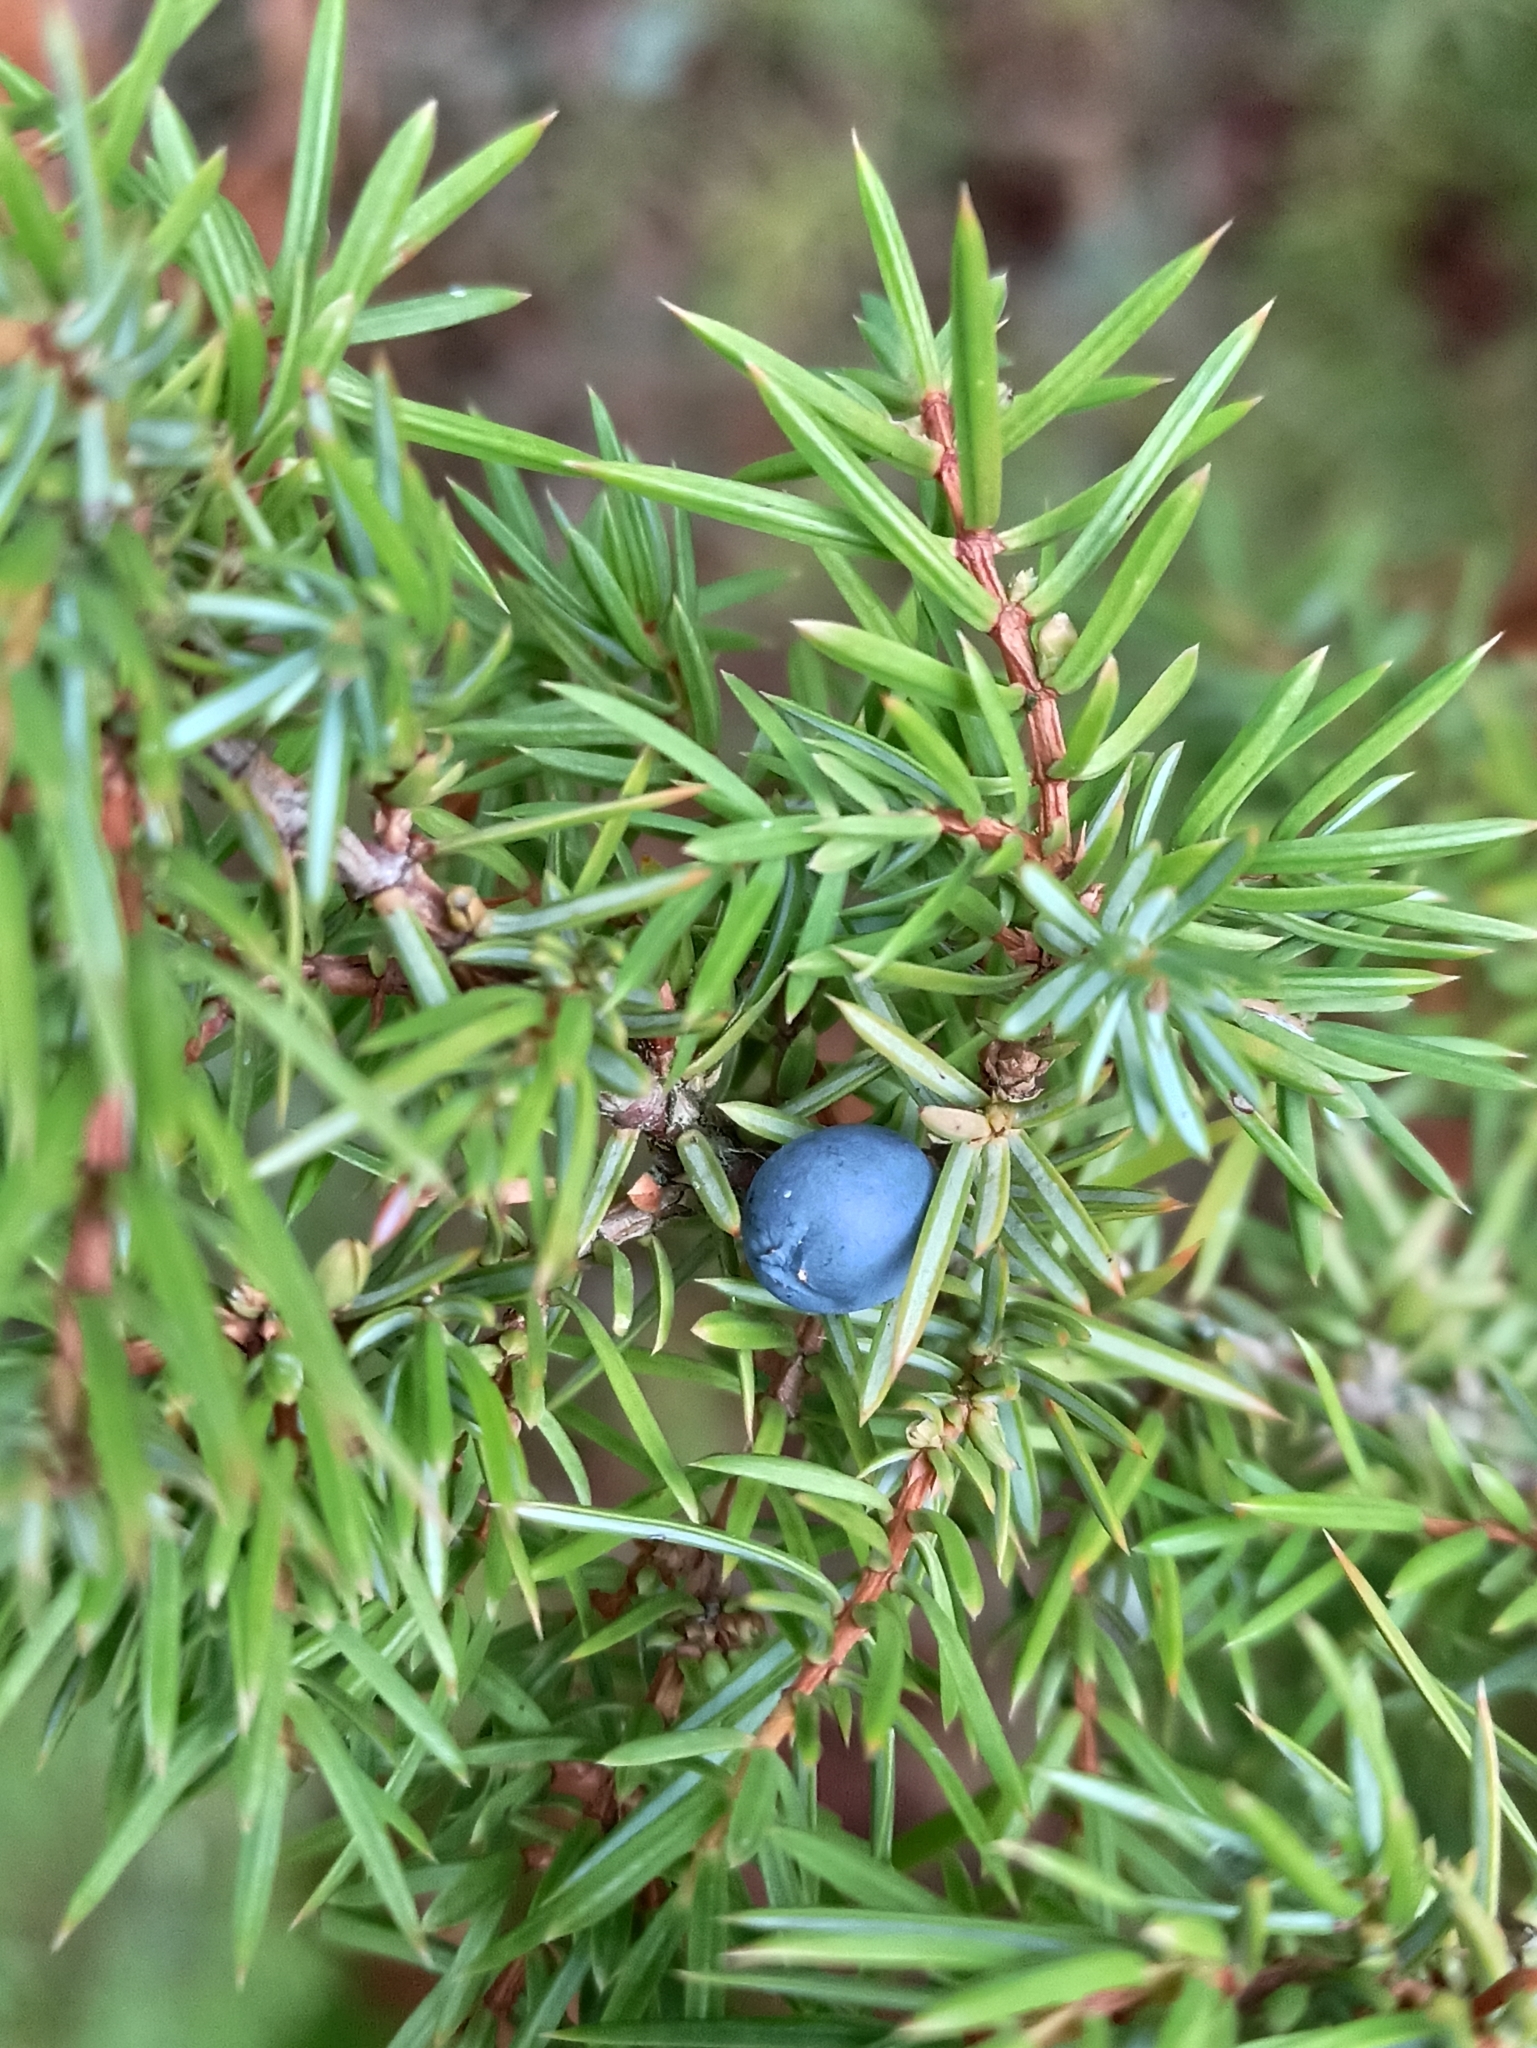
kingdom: Plantae
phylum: Tracheophyta
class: Pinopsida
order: Pinales
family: Cupressaceae
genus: Juniperus
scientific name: Juniperus communis
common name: Common juniper
